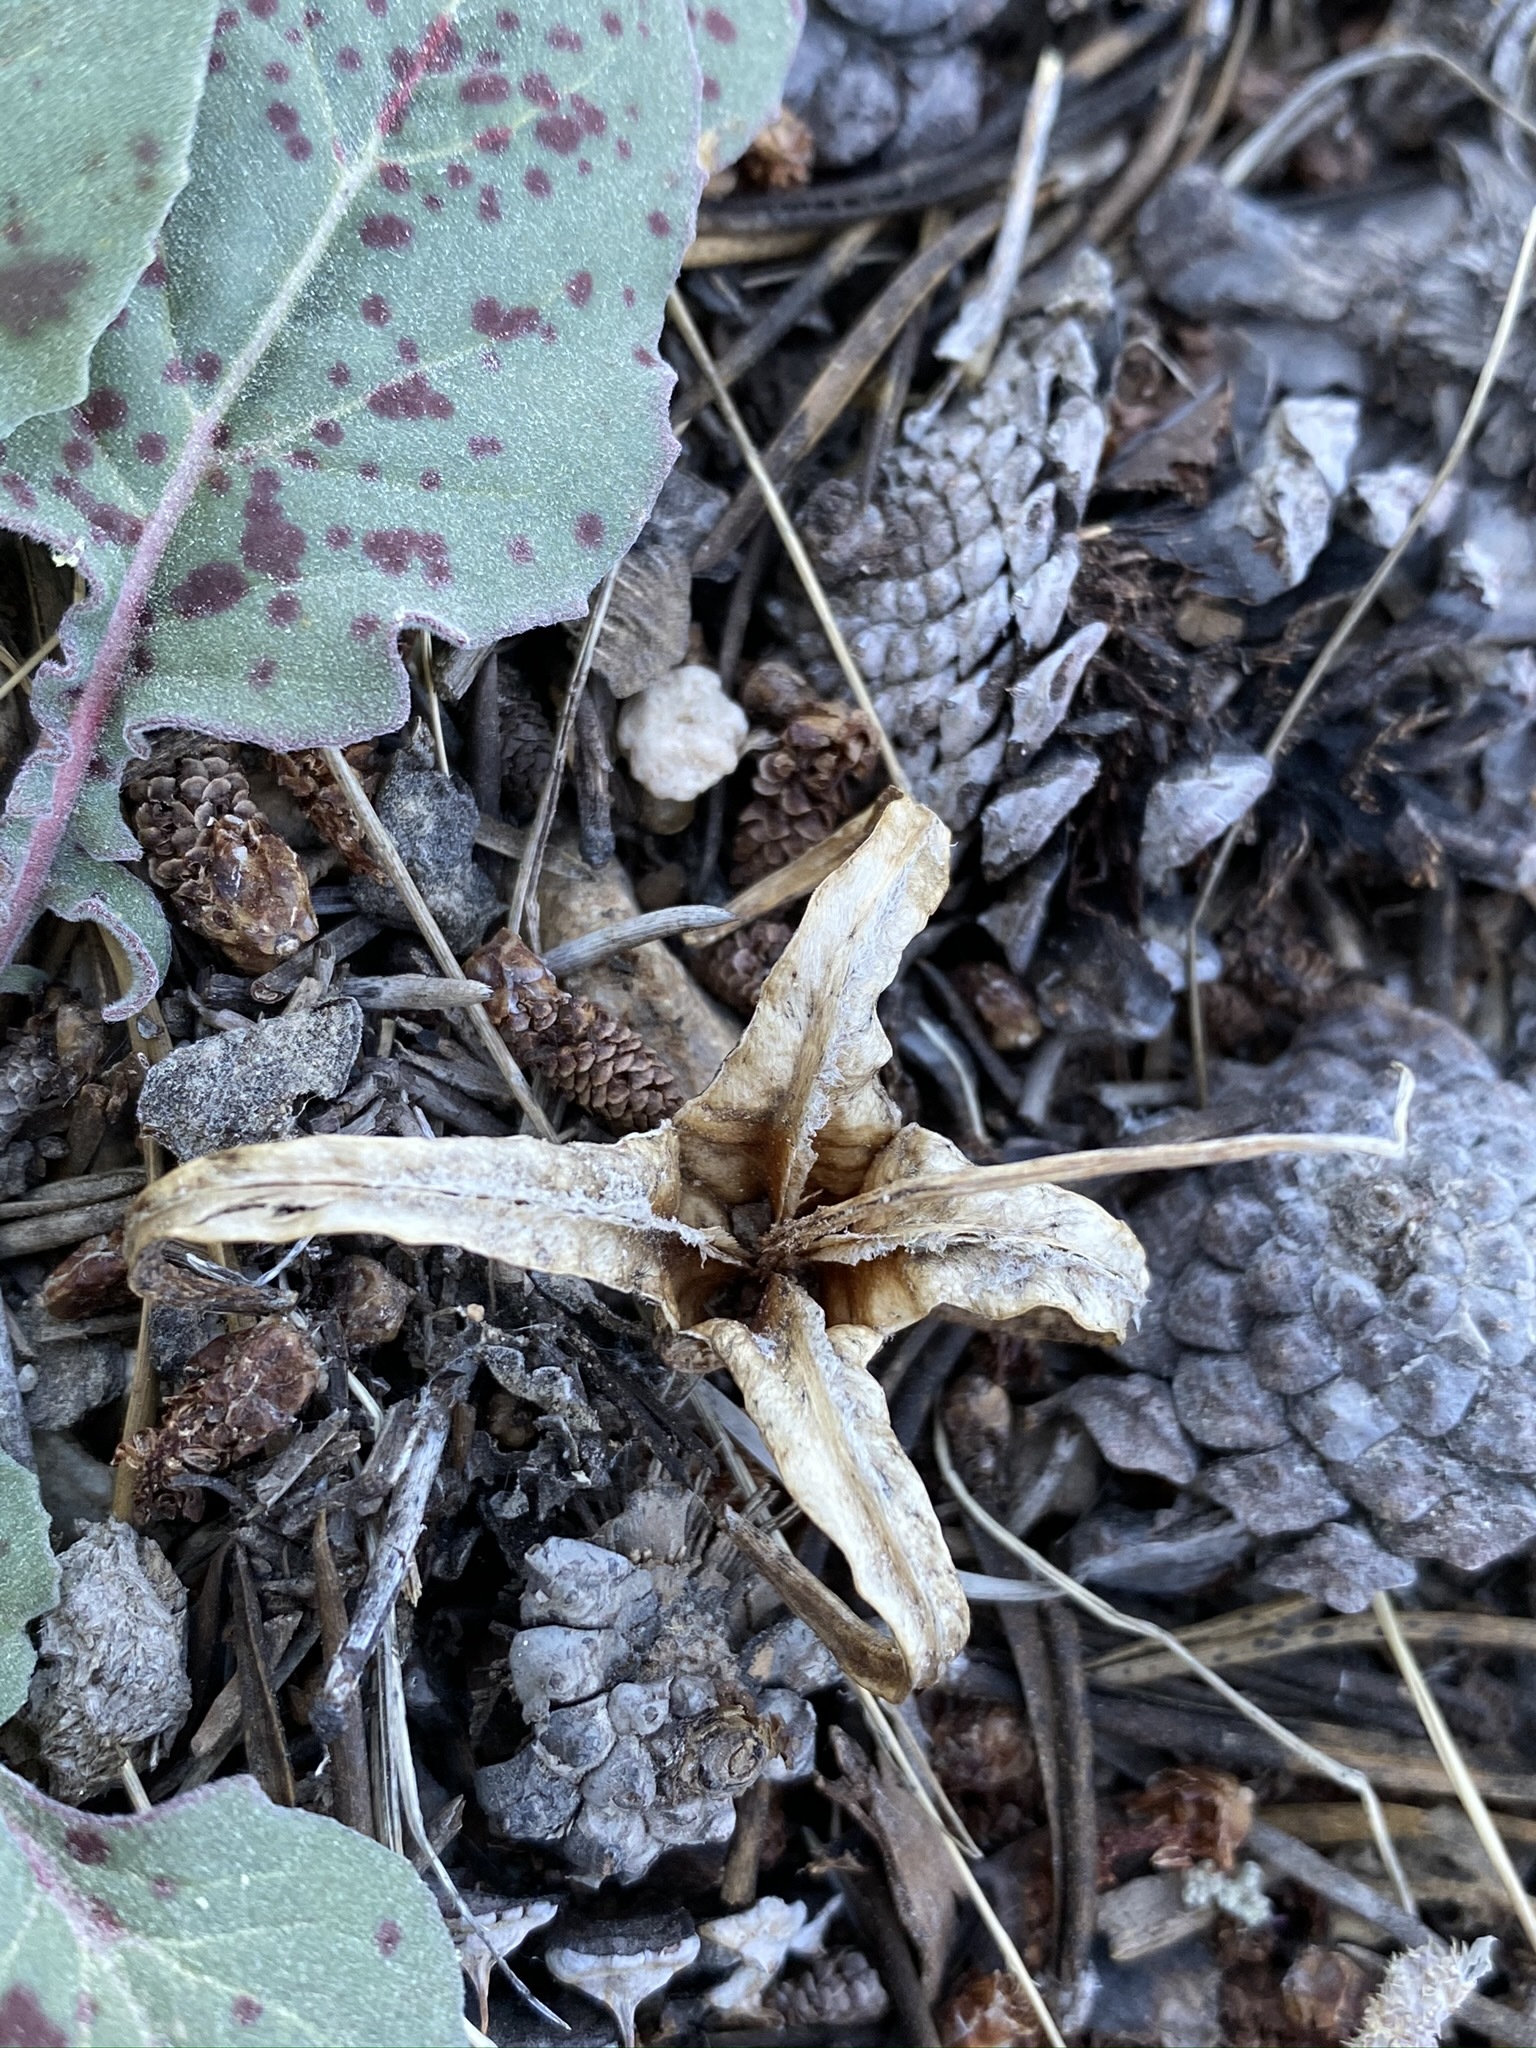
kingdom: Plantae
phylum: Tracheophyta
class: Magnoliopsida
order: Myrtales
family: Onagraceae
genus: Oenothera
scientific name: Oenothera xylocarpa
